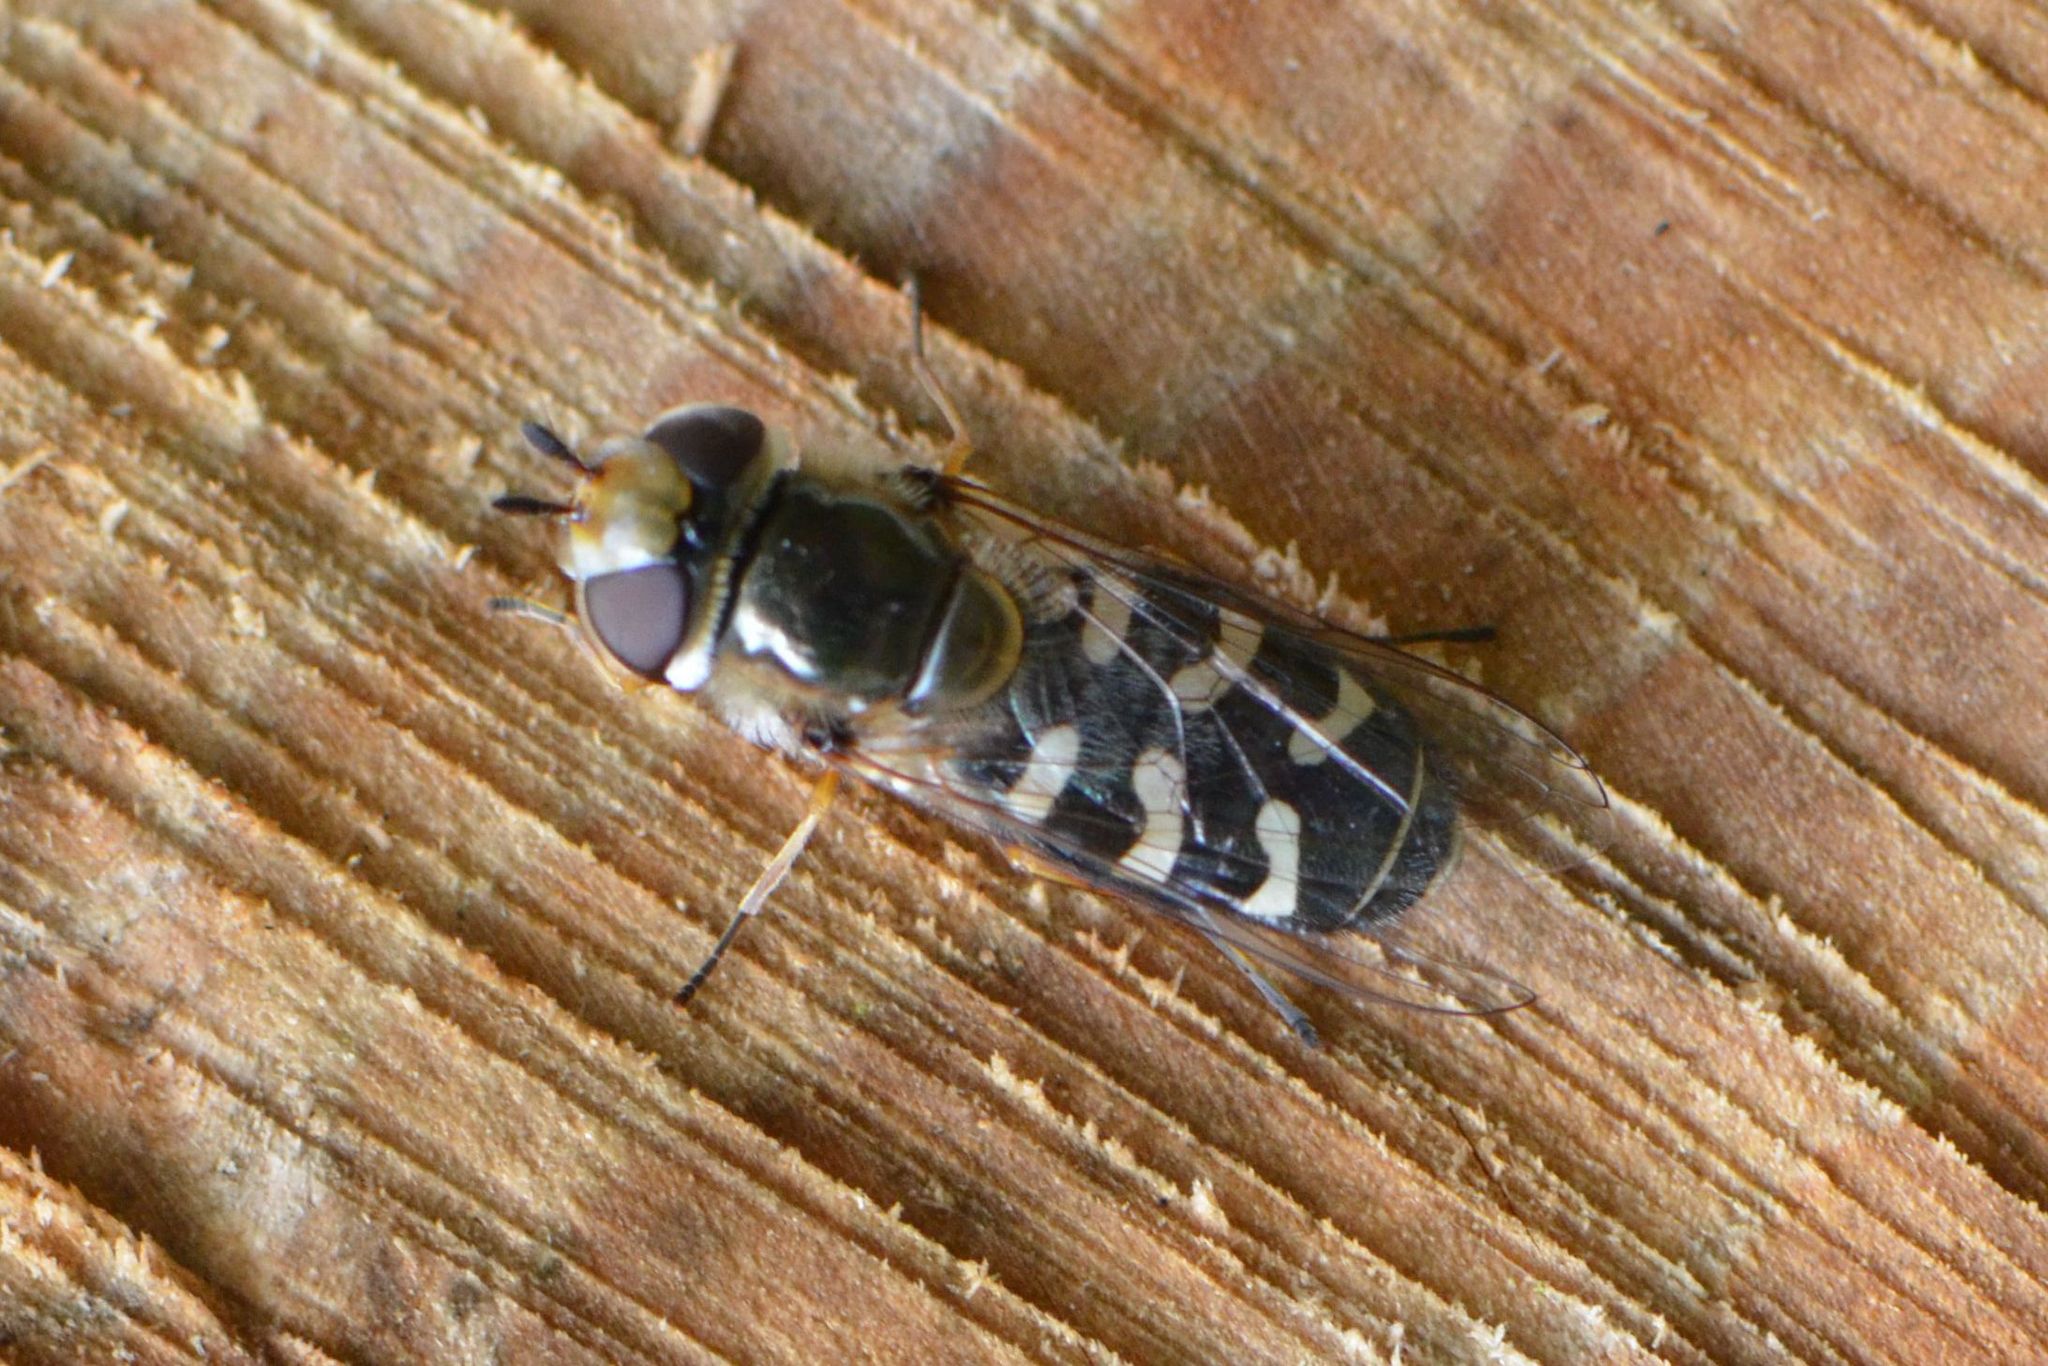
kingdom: Animalia
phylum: Arthropoda
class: Insecta
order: Diptera
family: Syrphidae
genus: Scaeva
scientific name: Scaeva pyrastri
